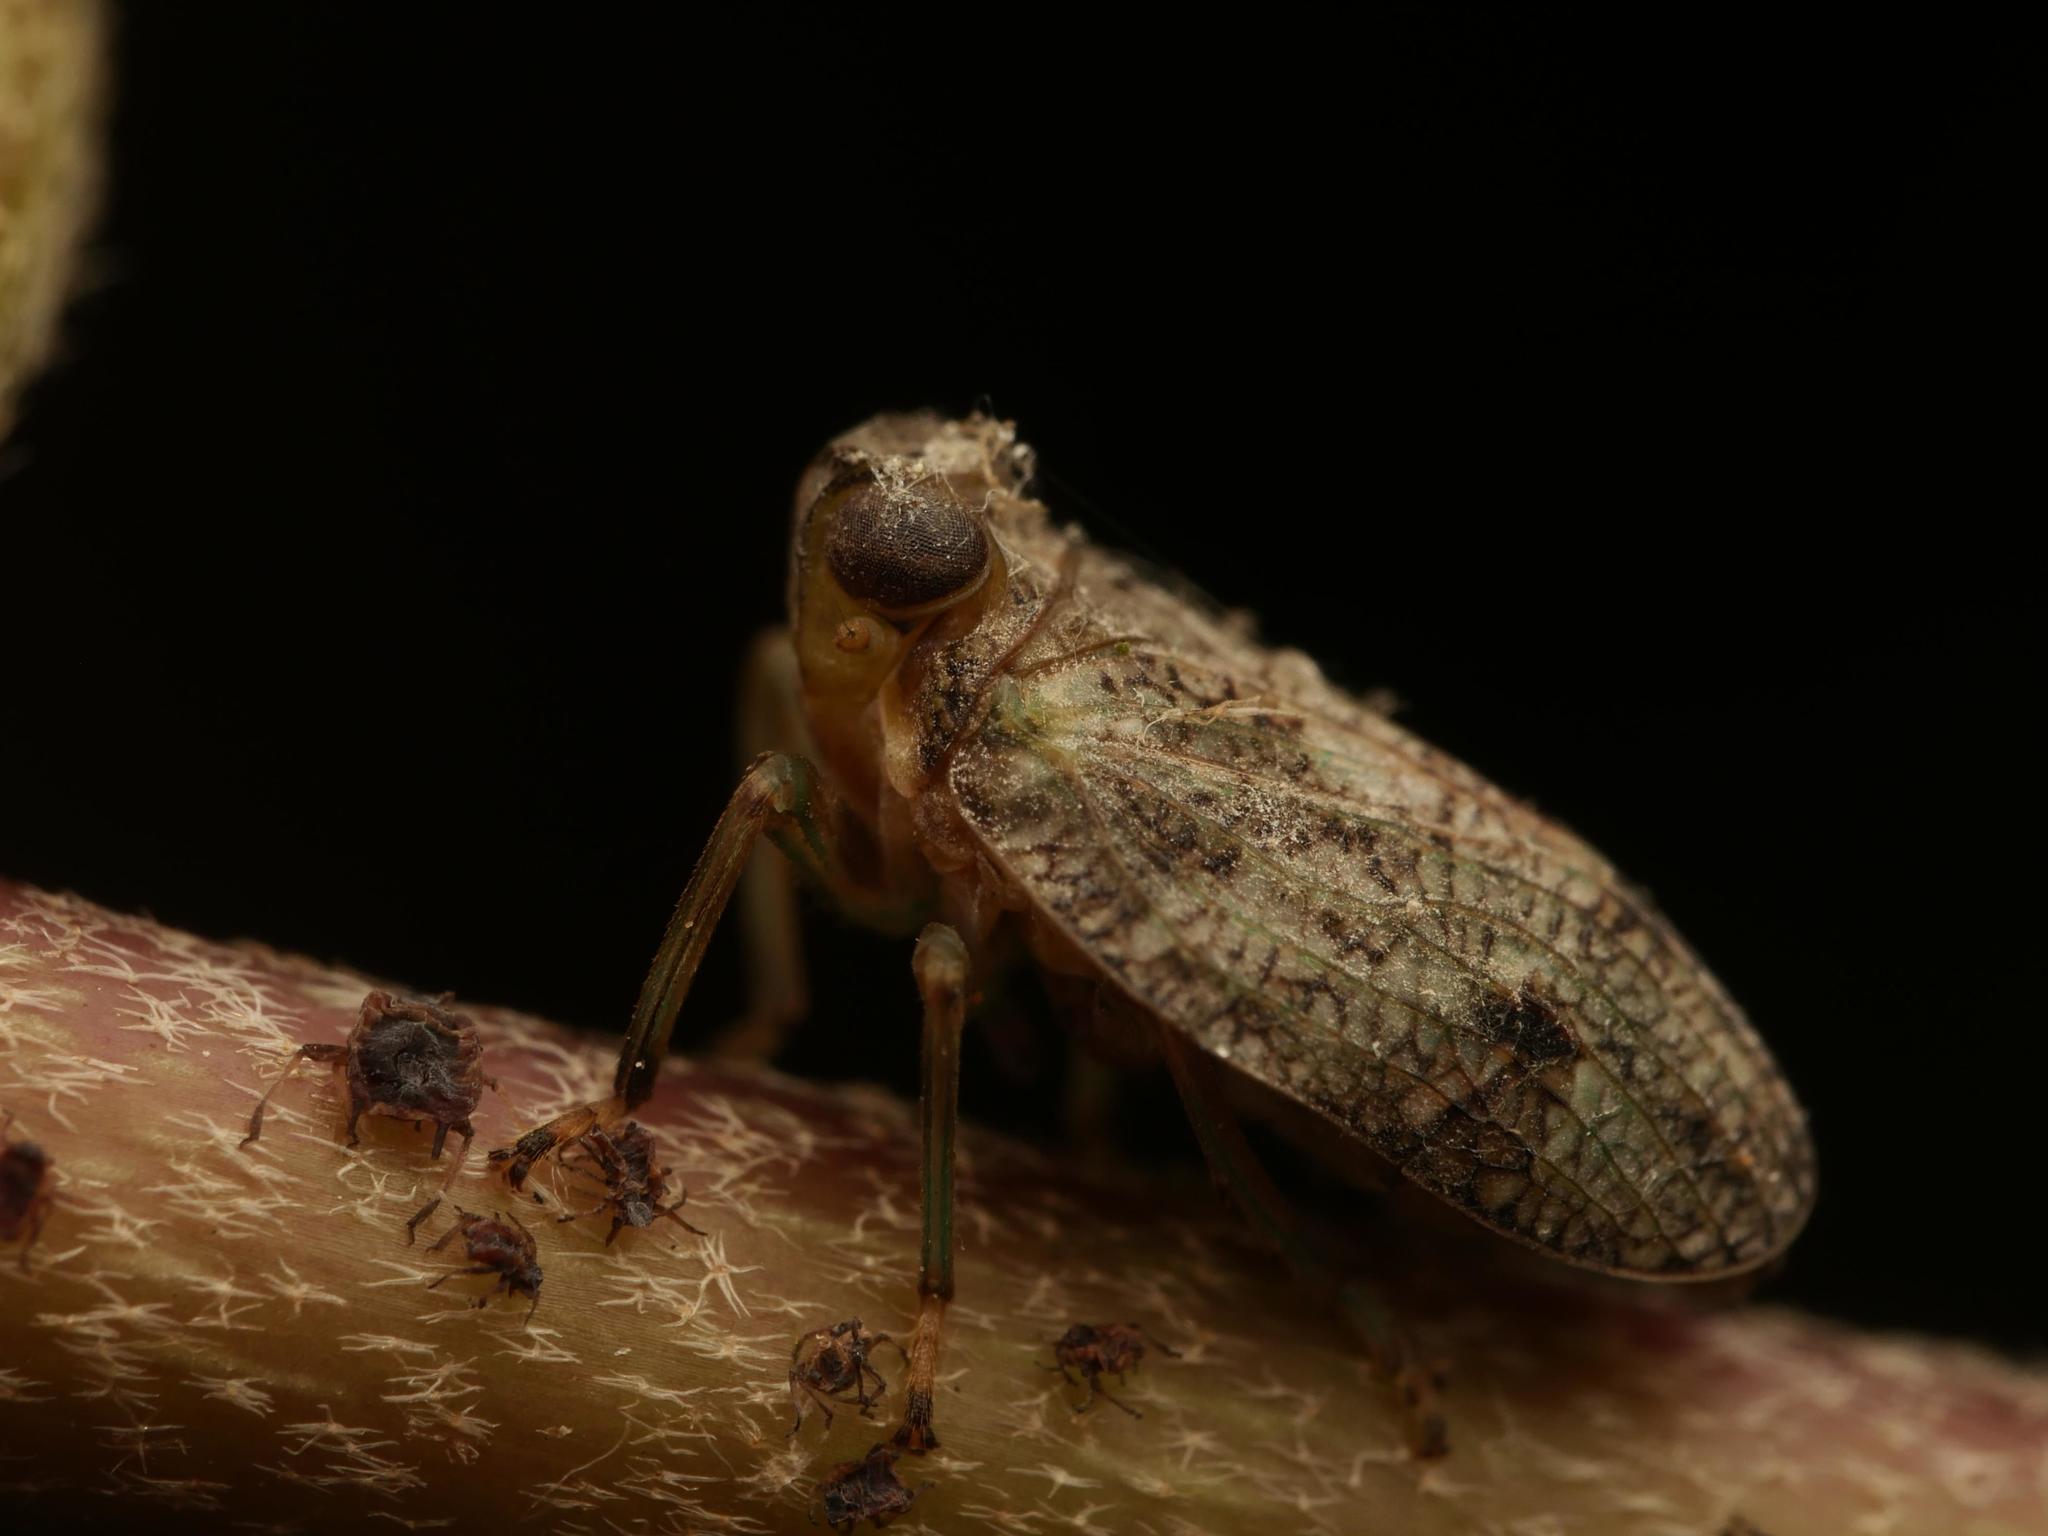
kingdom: Animalia
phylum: Arthropoda
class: Insecta
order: Hemiptera
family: Issidae
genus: Issus
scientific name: Issus coleoptratus
